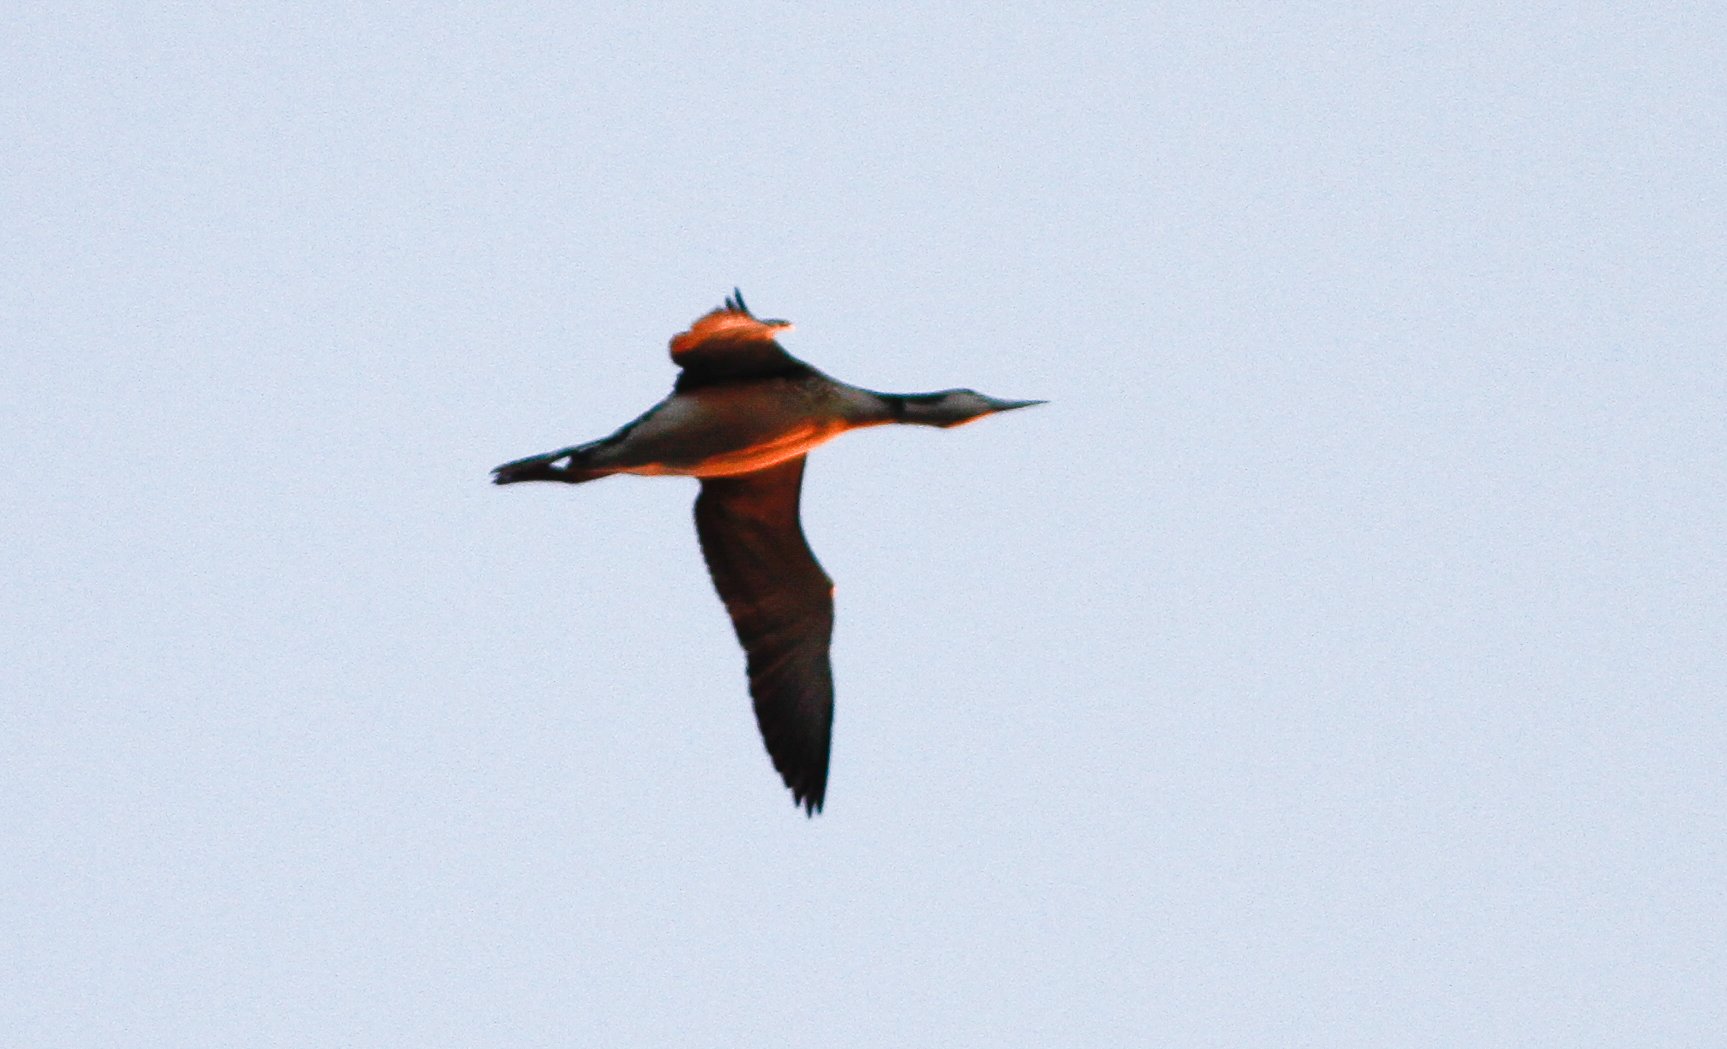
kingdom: Animalia
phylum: Chordata
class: Aves
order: Gaviiformes
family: Gaviidae
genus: Gavia
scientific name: Gavia immer
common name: Common loon
